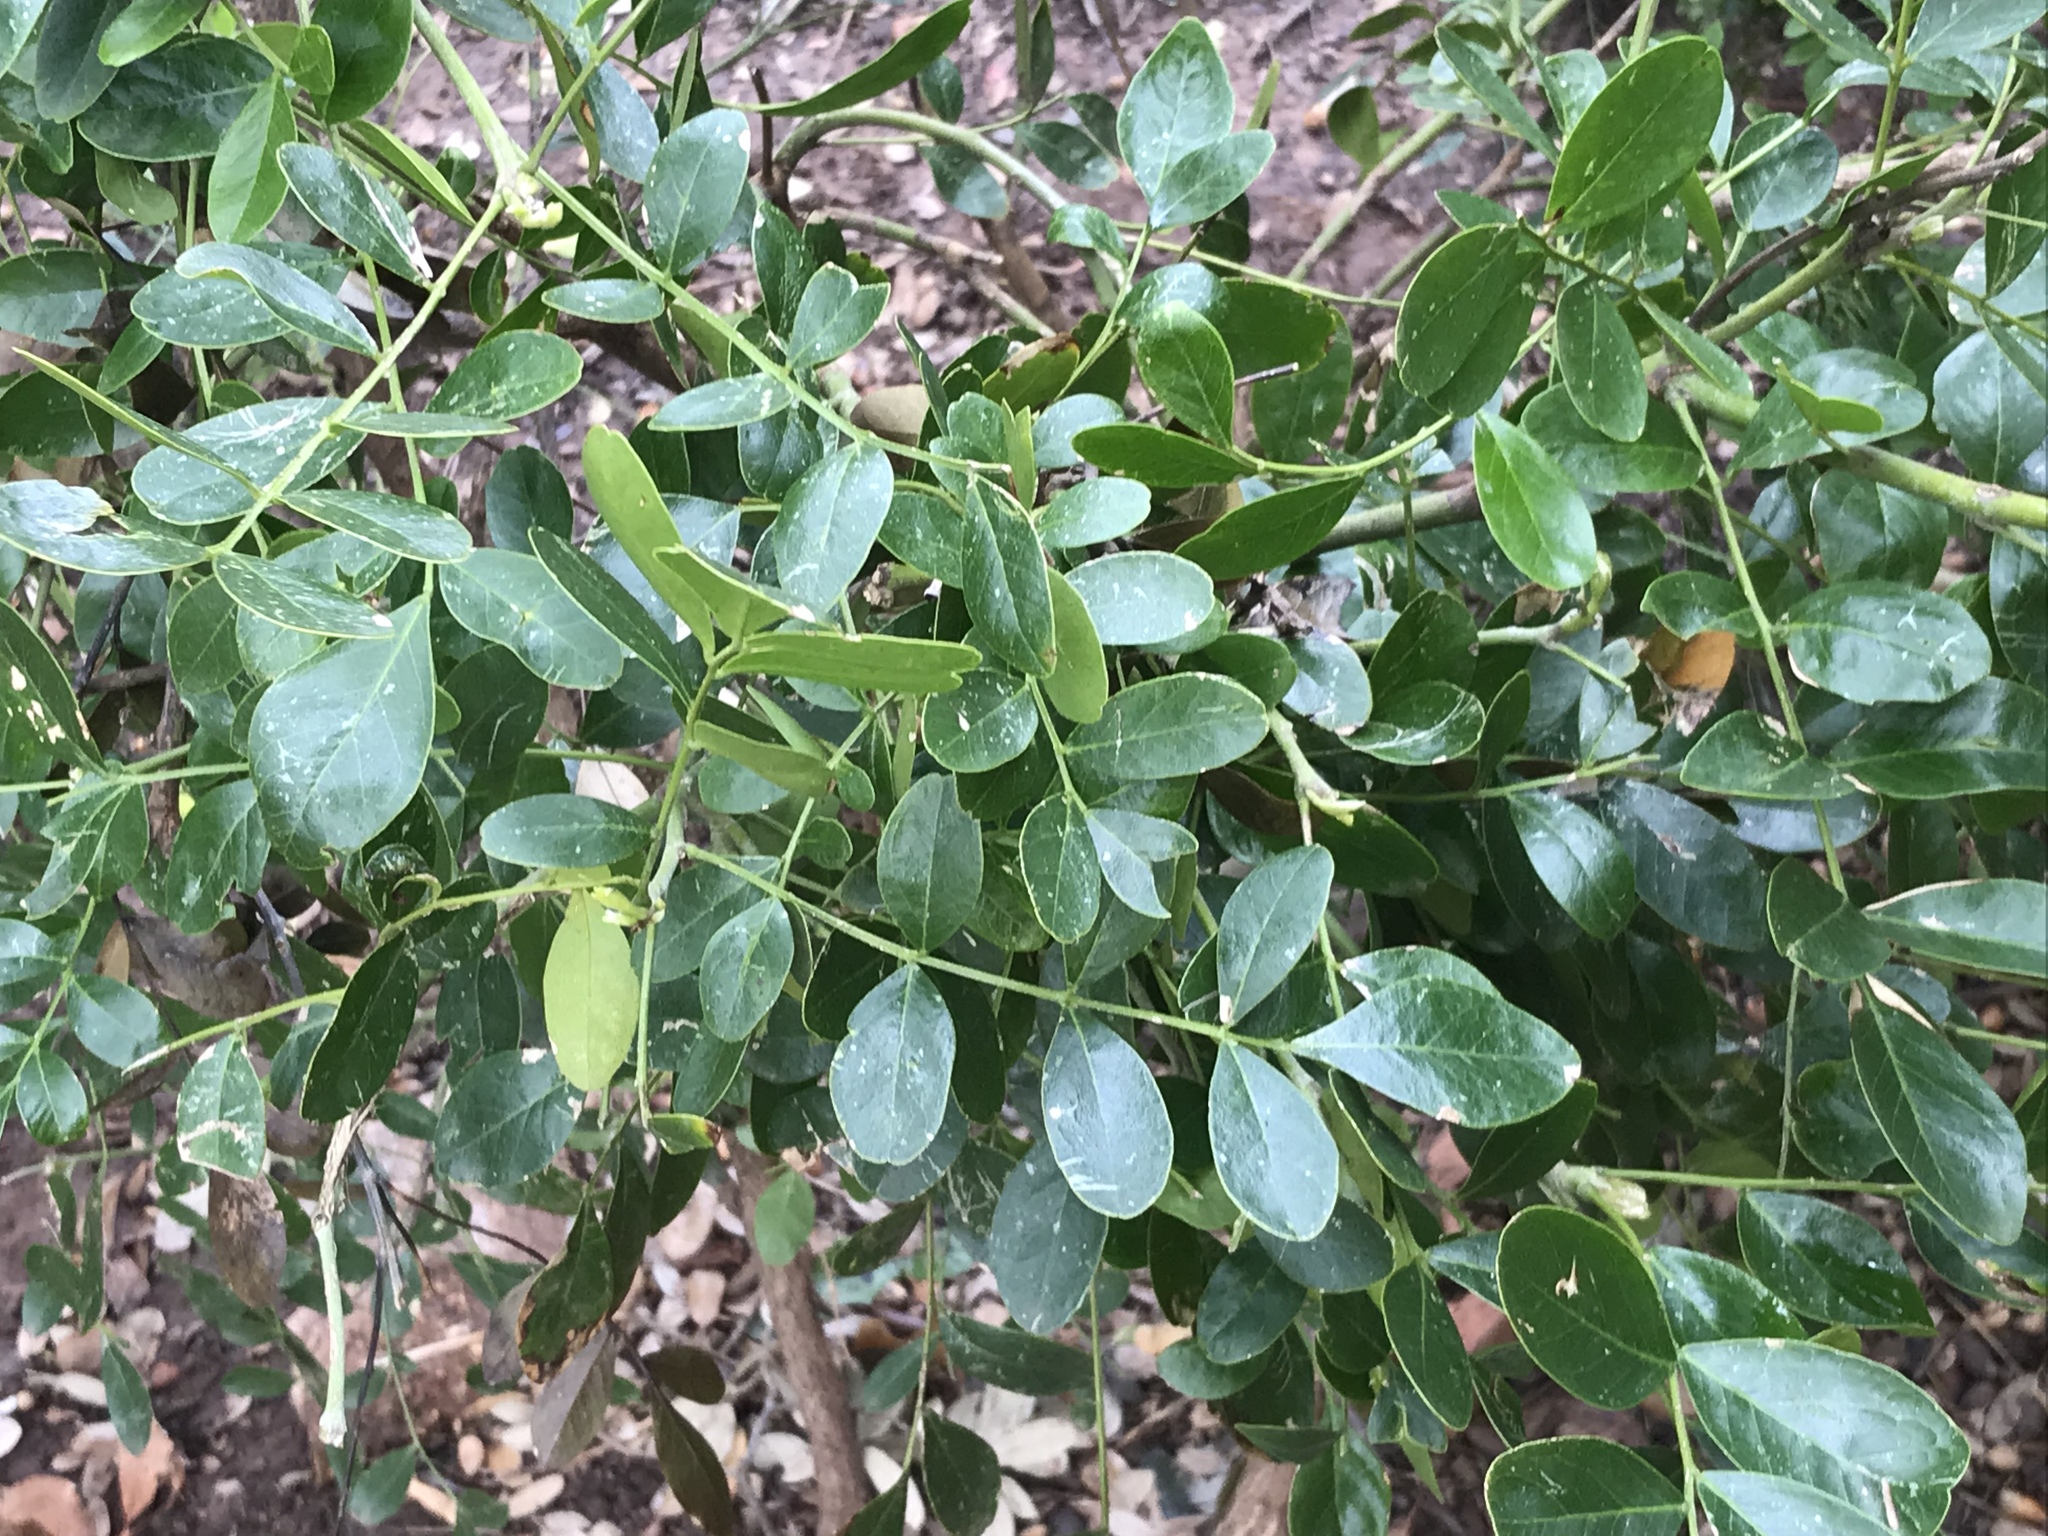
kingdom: Plantae
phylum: Tracheophyta
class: Magnoliopsida
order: Fabales
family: Fabaceae
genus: Dermatophyllum
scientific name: Dermatophyllum secundiflorum
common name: Texas-mountain-laurel
